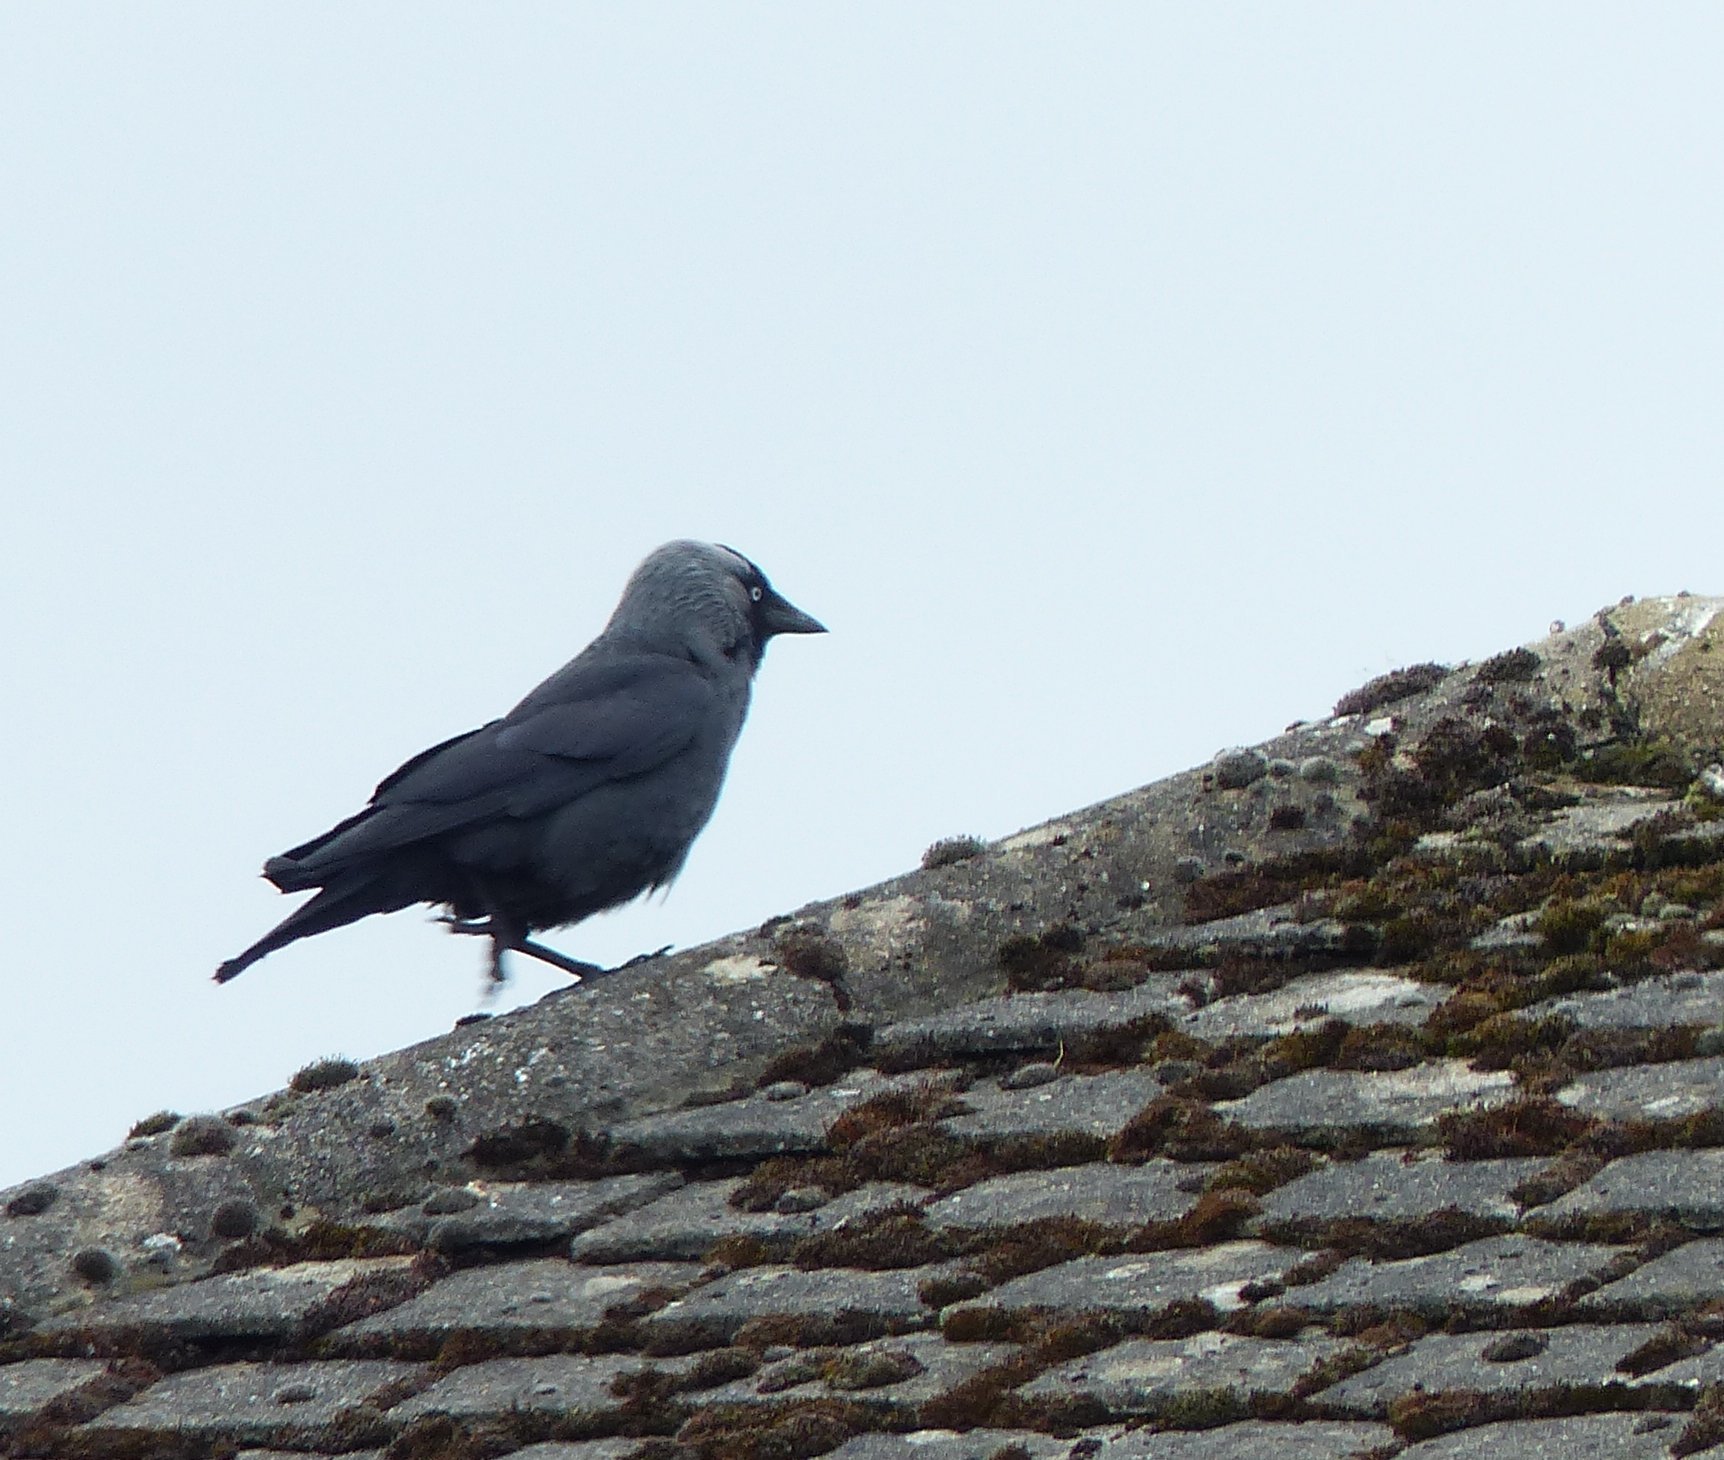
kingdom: Animalia
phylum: Chordata
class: Aves
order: Passeriformes
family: Corvidae
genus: Coloeus
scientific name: Coloeus monedula
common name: Western jackdaw
